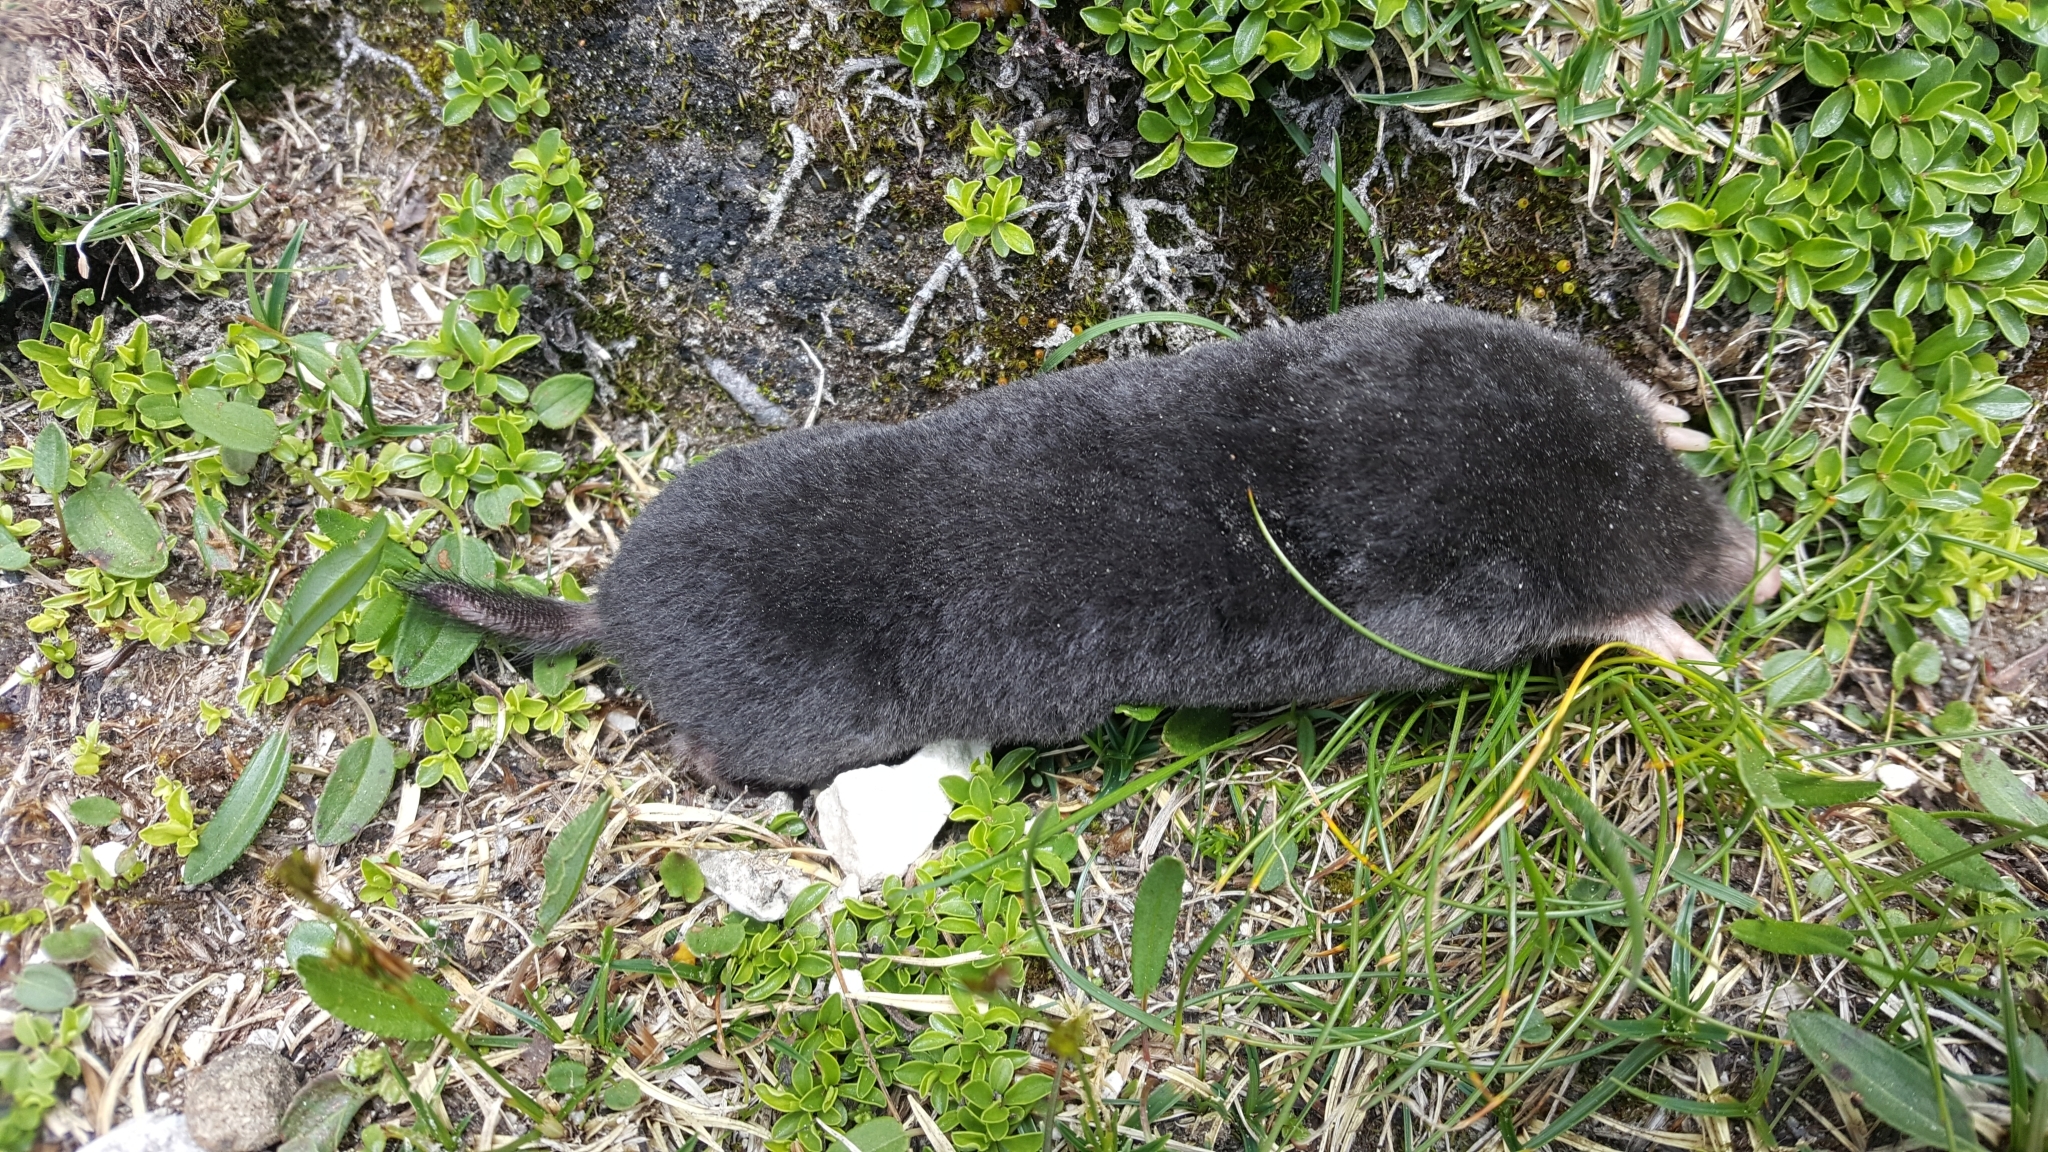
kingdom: Animalia
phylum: Chordata
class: Mammalia
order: Soricomorpha
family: Talpidae
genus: Talpa
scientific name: Talpa europaea
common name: European mole
